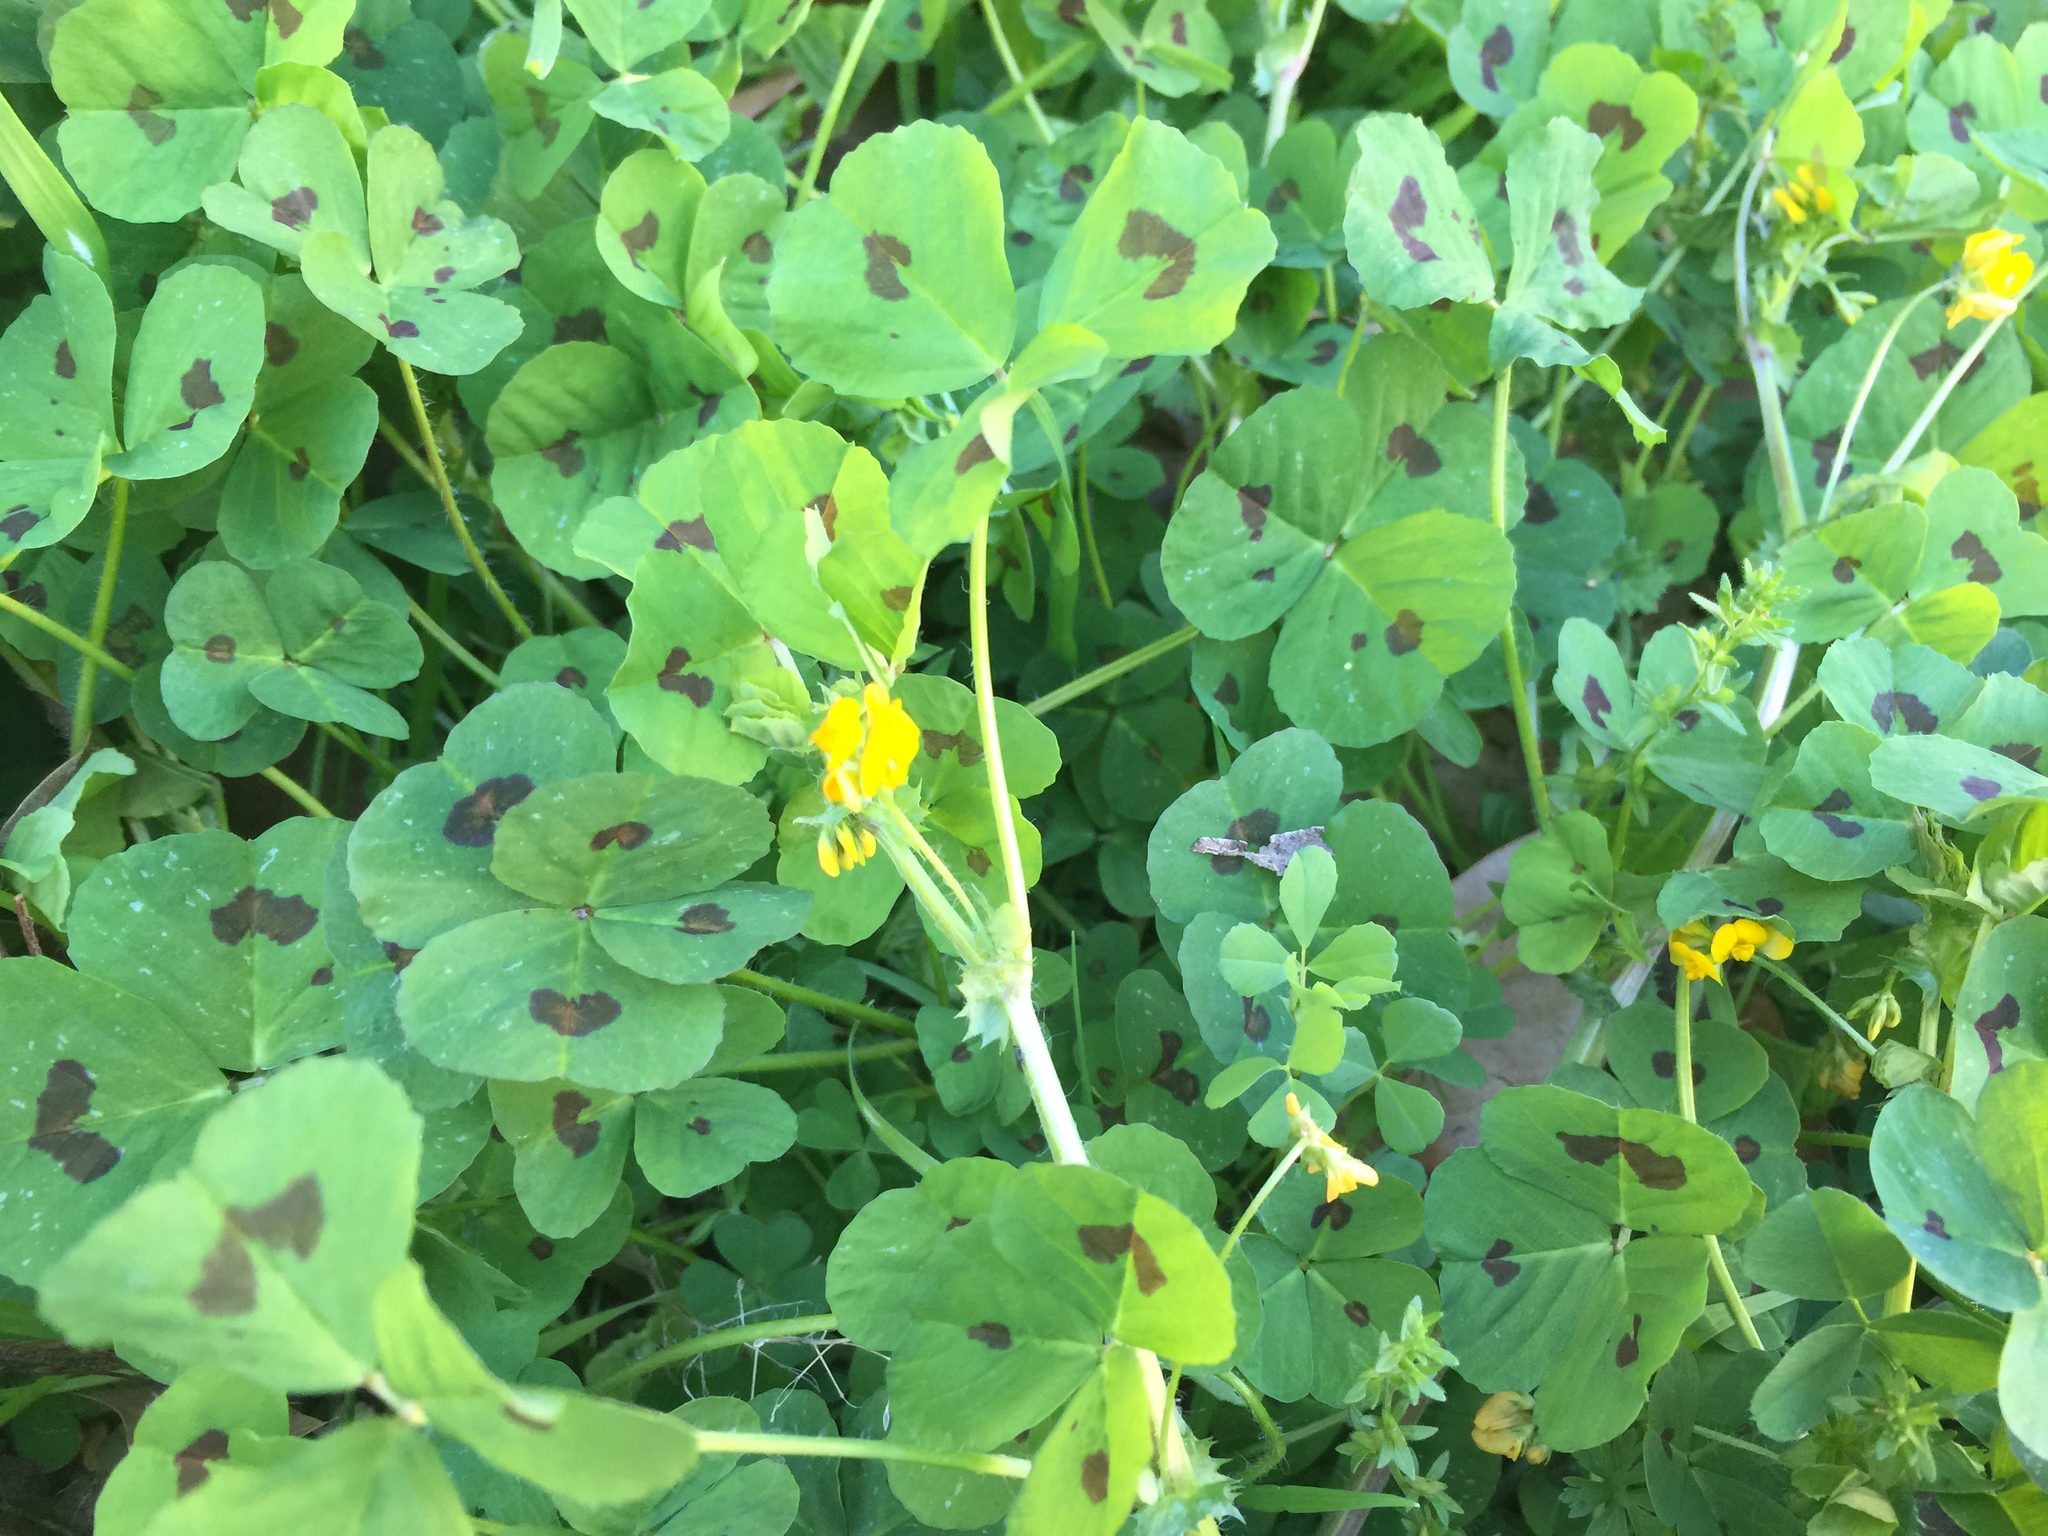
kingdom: Plantae
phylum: Tracheophyta
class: Magnoliopsida
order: Fabales
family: Fabaceae
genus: Medicago
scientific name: Medicago arabica
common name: Spotted medick
